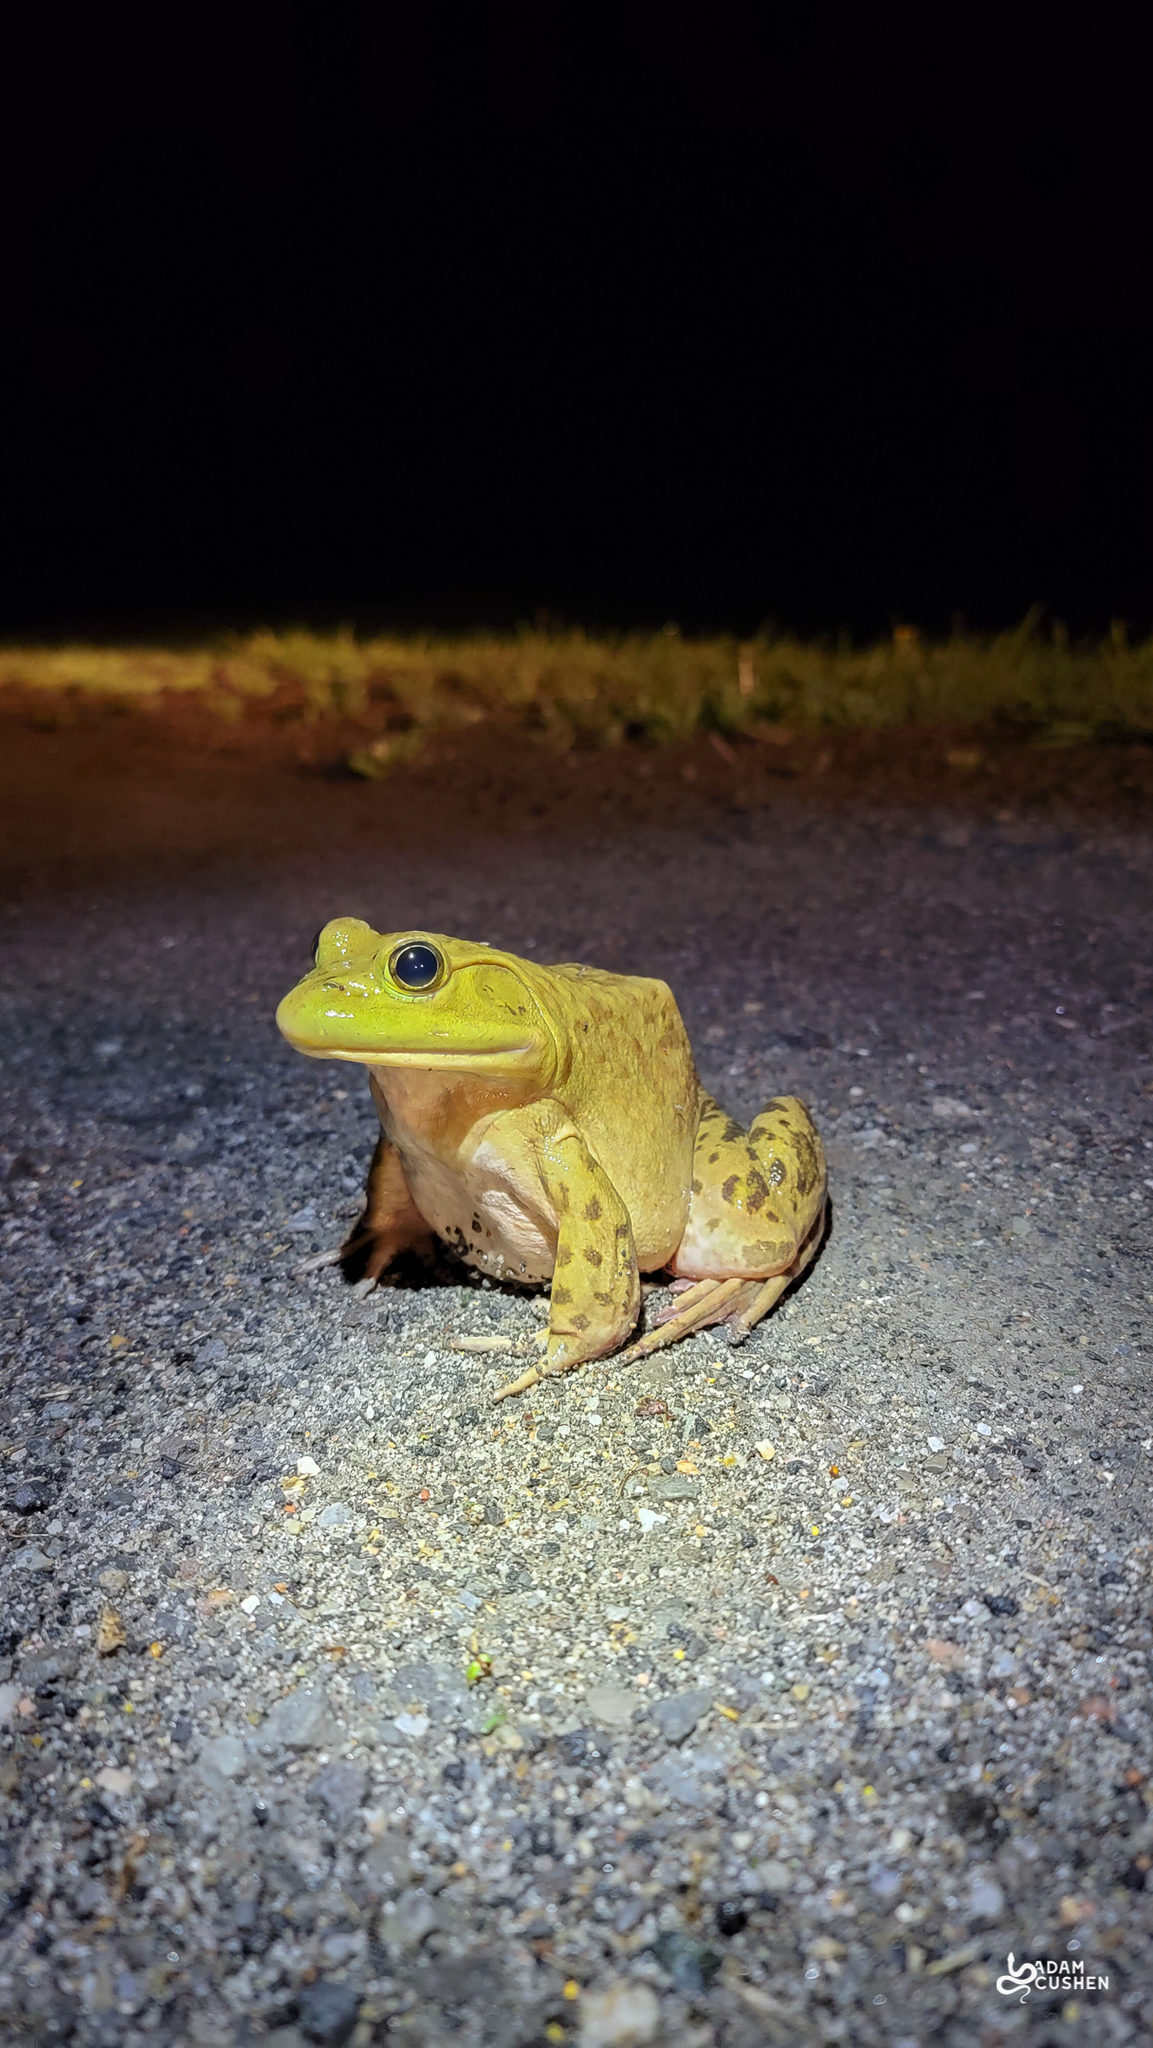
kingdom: Animalia
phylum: Chordata
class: Amphibia
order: Anura
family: Ranidae
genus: Lithobates
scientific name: Lithobates catesbeianus
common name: American bullfrog
